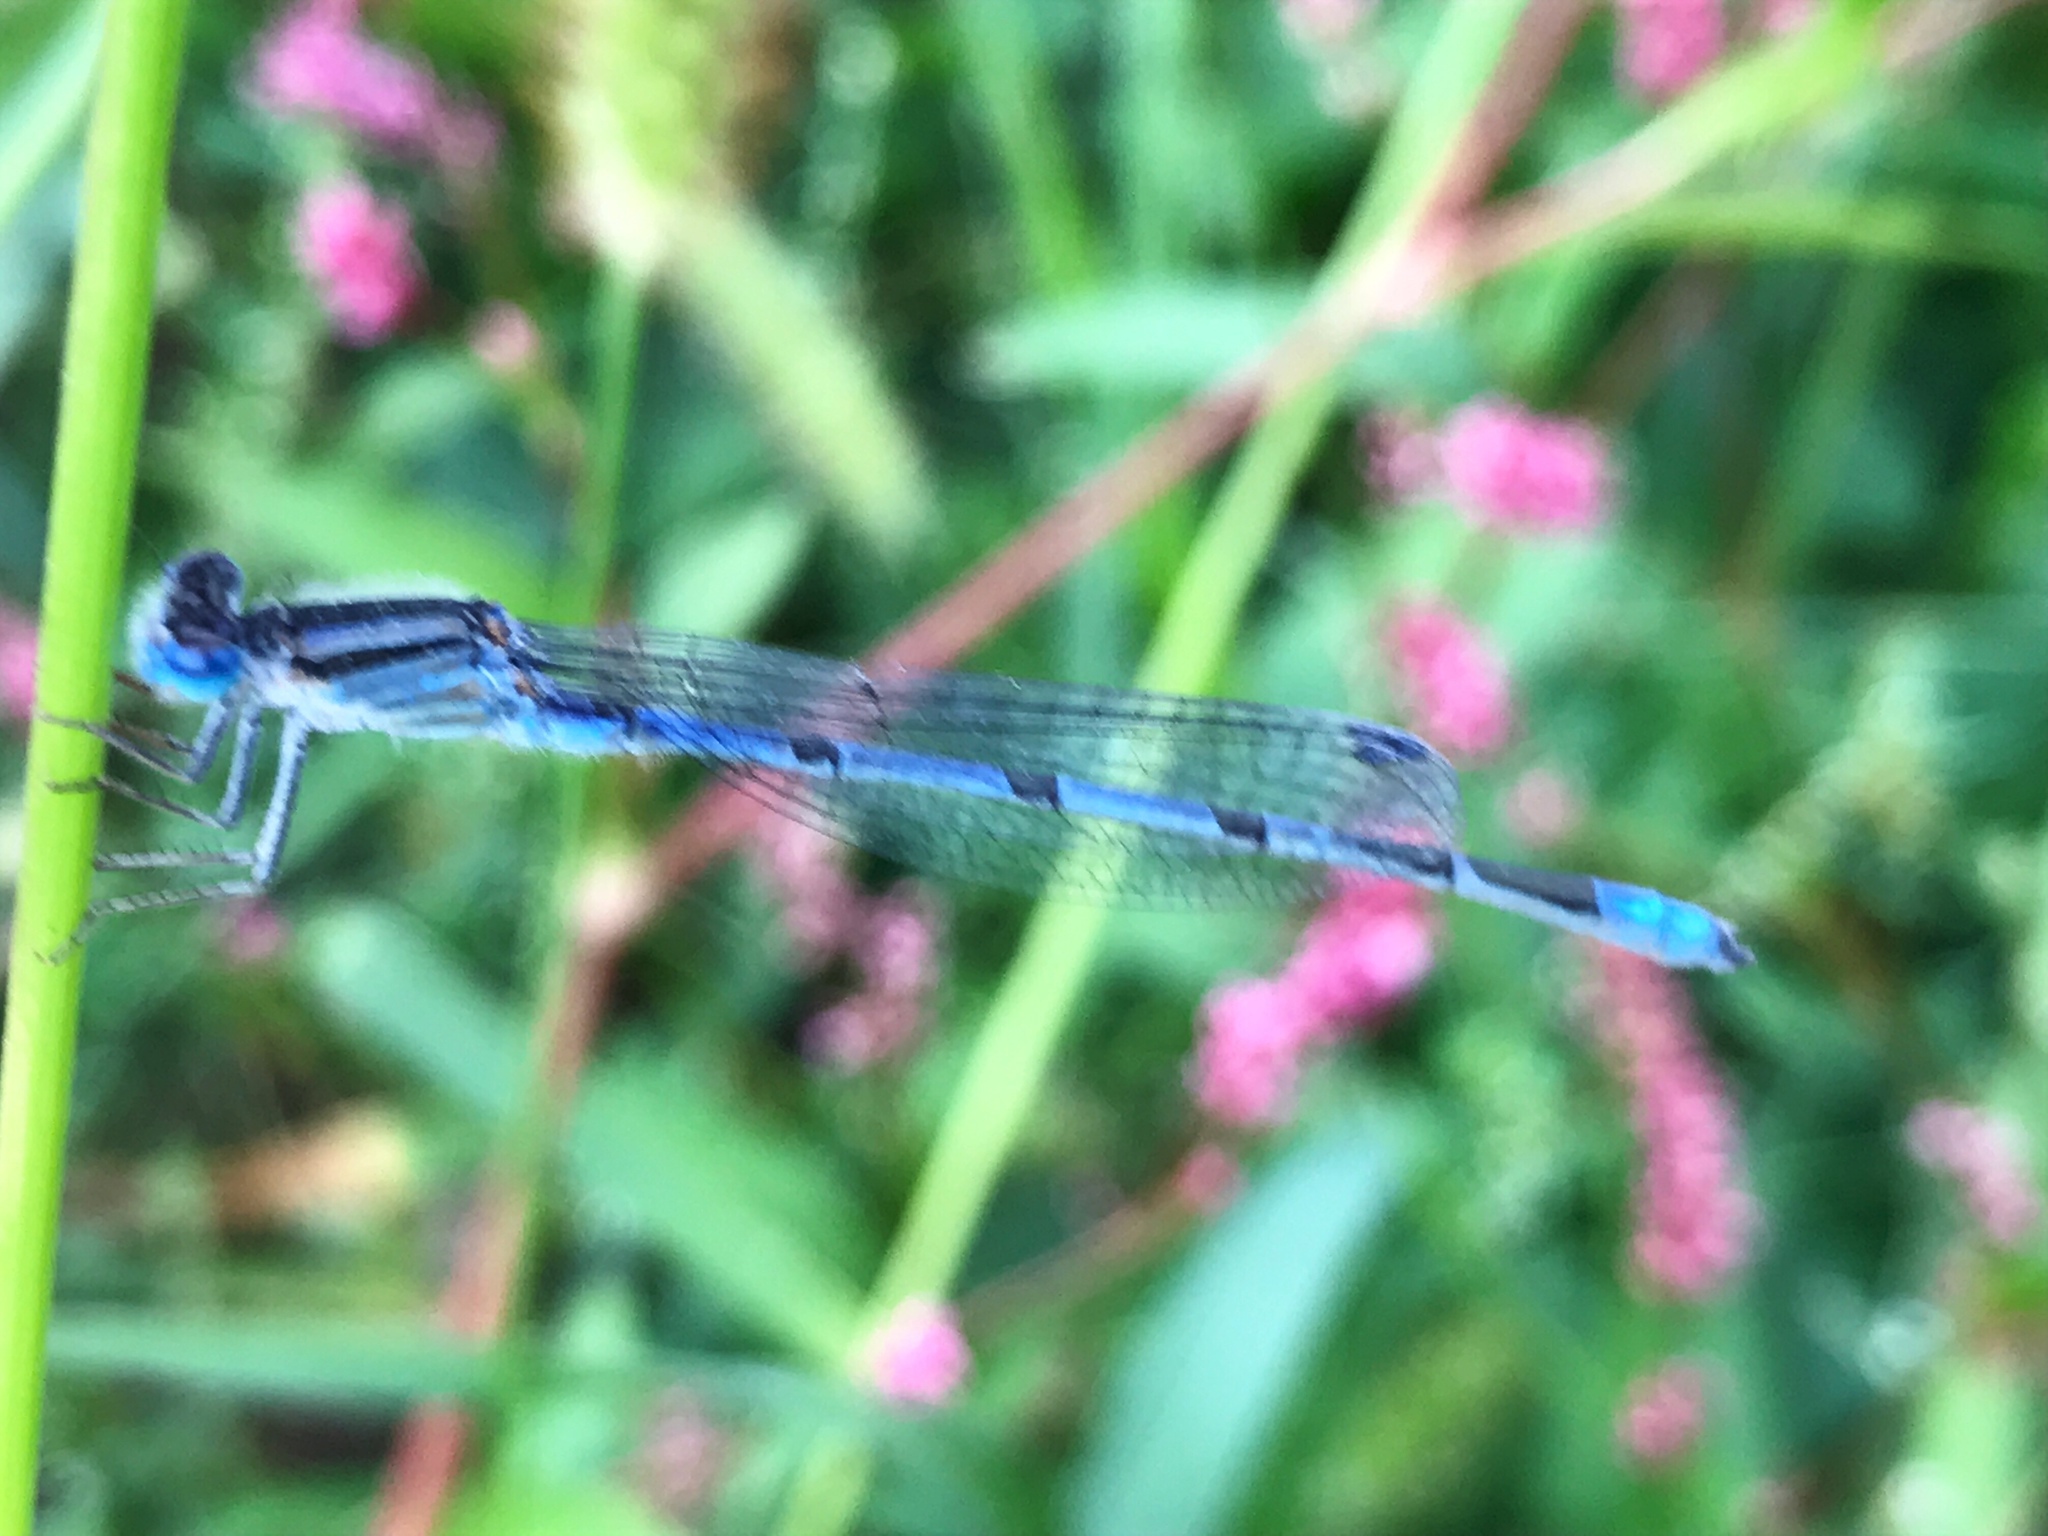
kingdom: Animalia
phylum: Arthropoda
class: Insecta
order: Odonata
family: Coenagrionidae
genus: Enallagma
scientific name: Enallagma civile
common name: Damselfly
